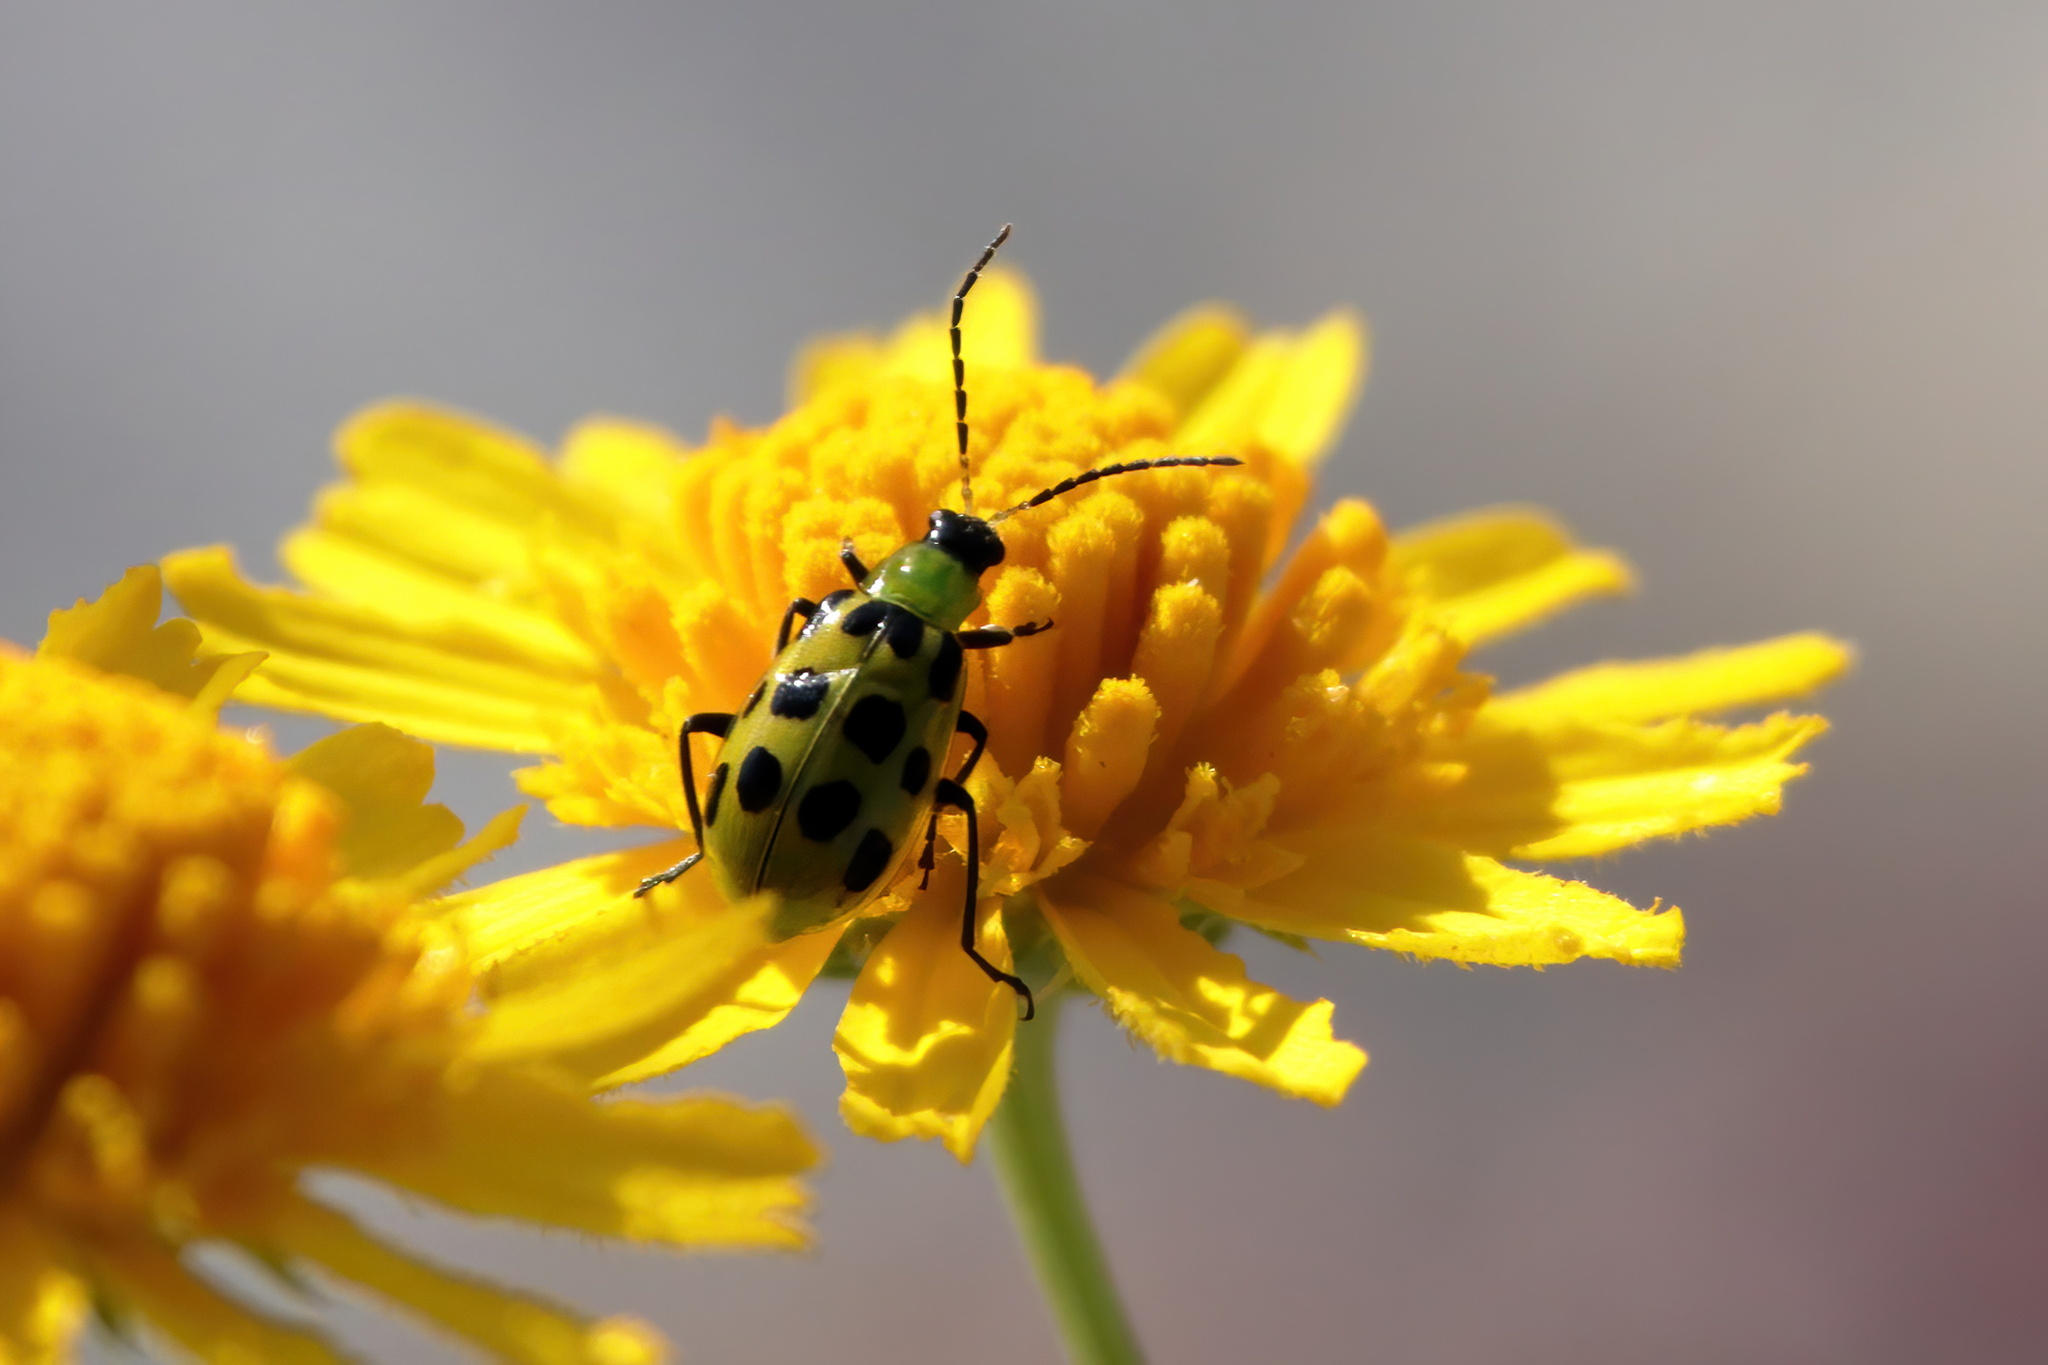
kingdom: Animalia
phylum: Arthropoda
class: Insecta
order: Coleoptera
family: Chrysomelidae
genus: Diabrotica
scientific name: Diabrotica undecimpunctata
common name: Spotted cucumber beetle
